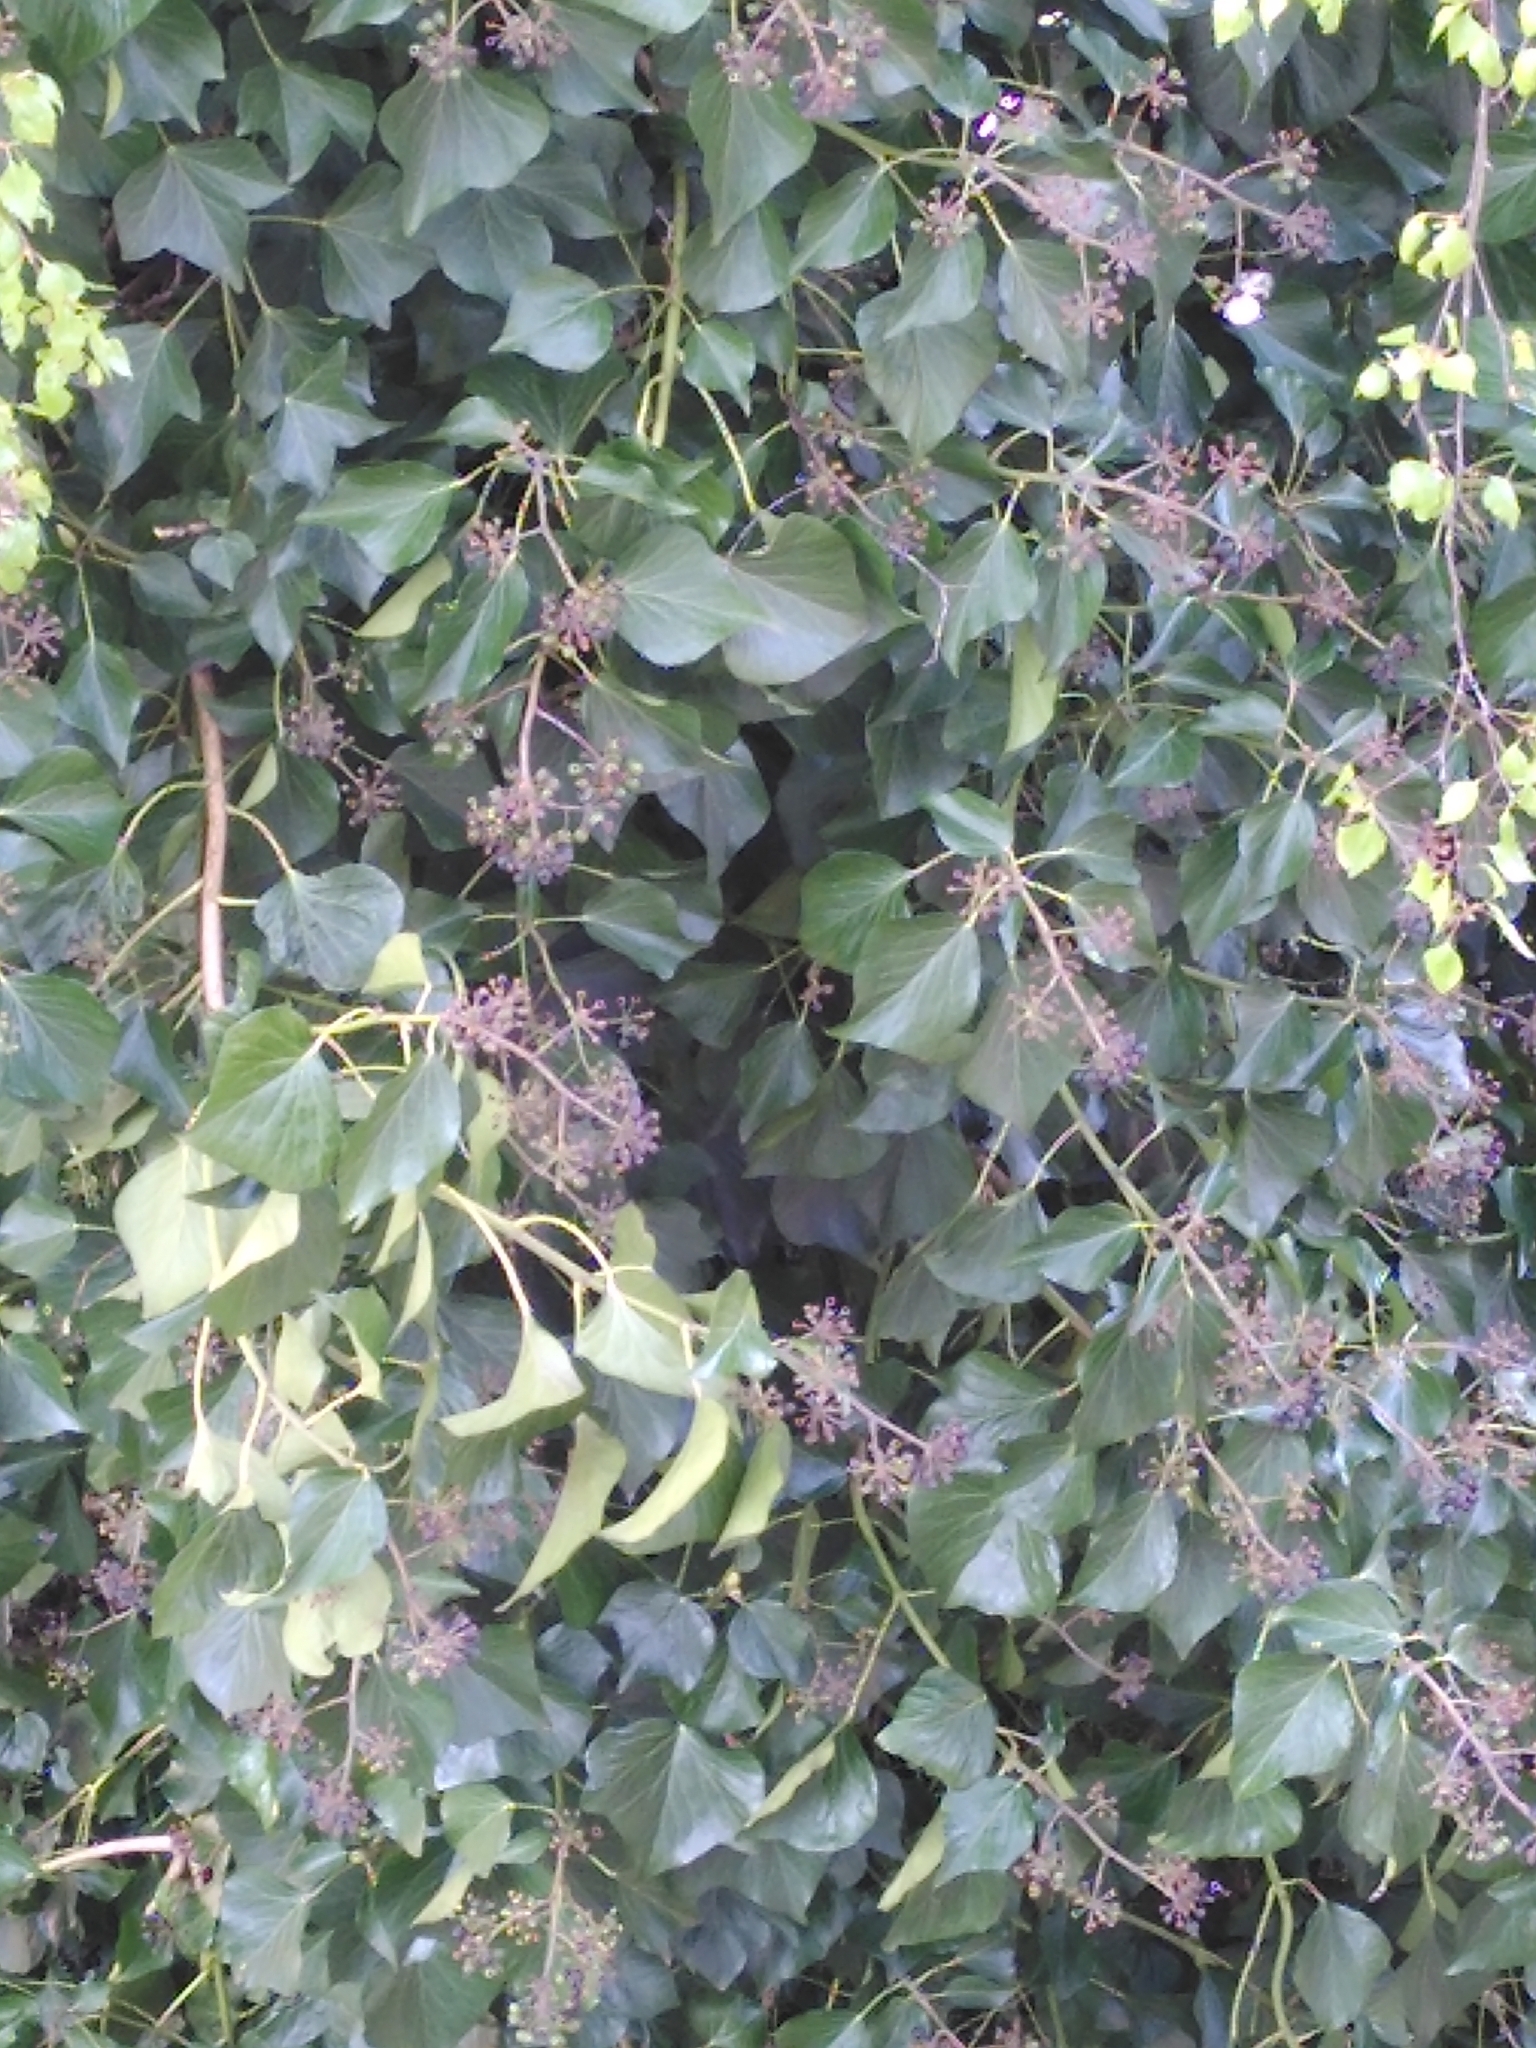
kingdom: Plantae
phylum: Tracheophyta
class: Magnoliopsida
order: Apiales
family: Araliaceae
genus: Hedera
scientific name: Hedera helix
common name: Ivy
